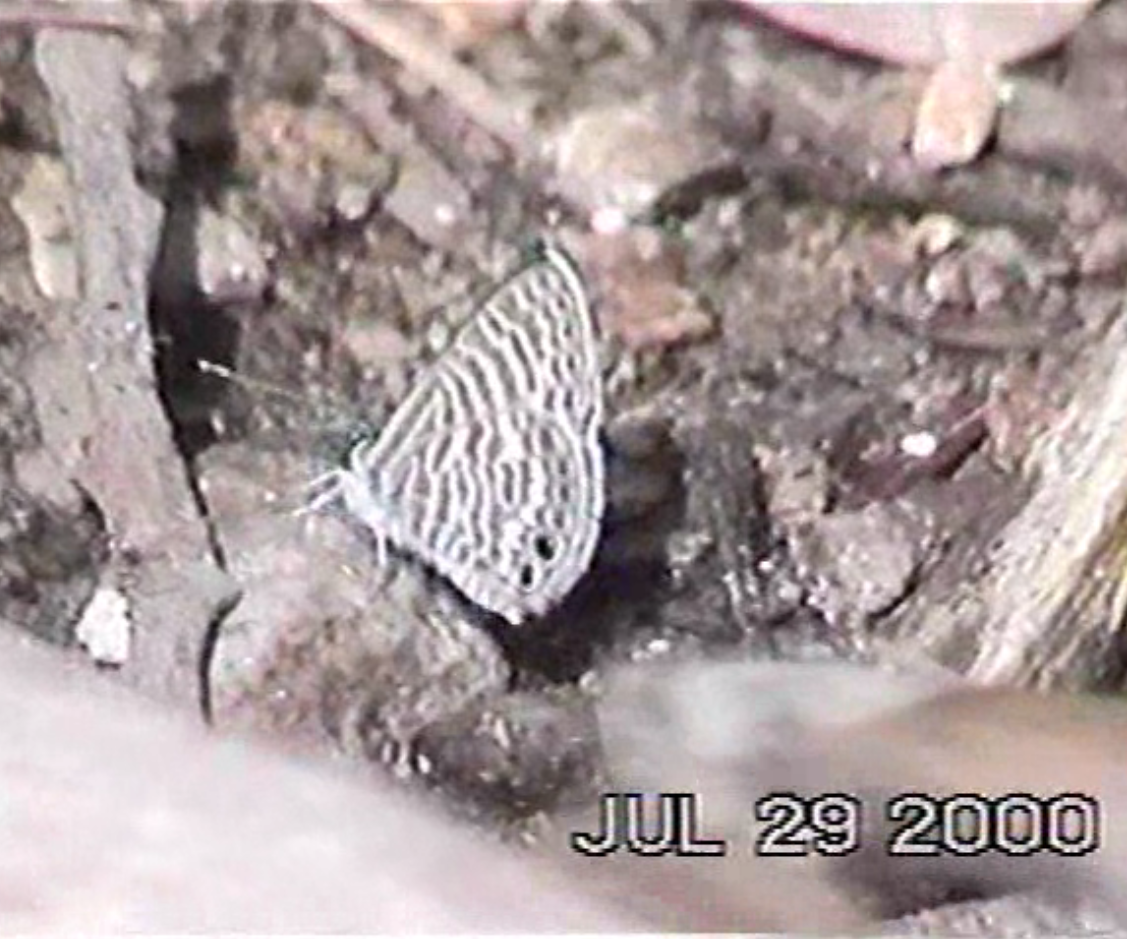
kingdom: Animalia
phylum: Arthropoda
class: Insecta
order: Lepidoptera
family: Lycaenidae
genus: Leptotes
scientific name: Leptotes marina
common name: Marine blue
